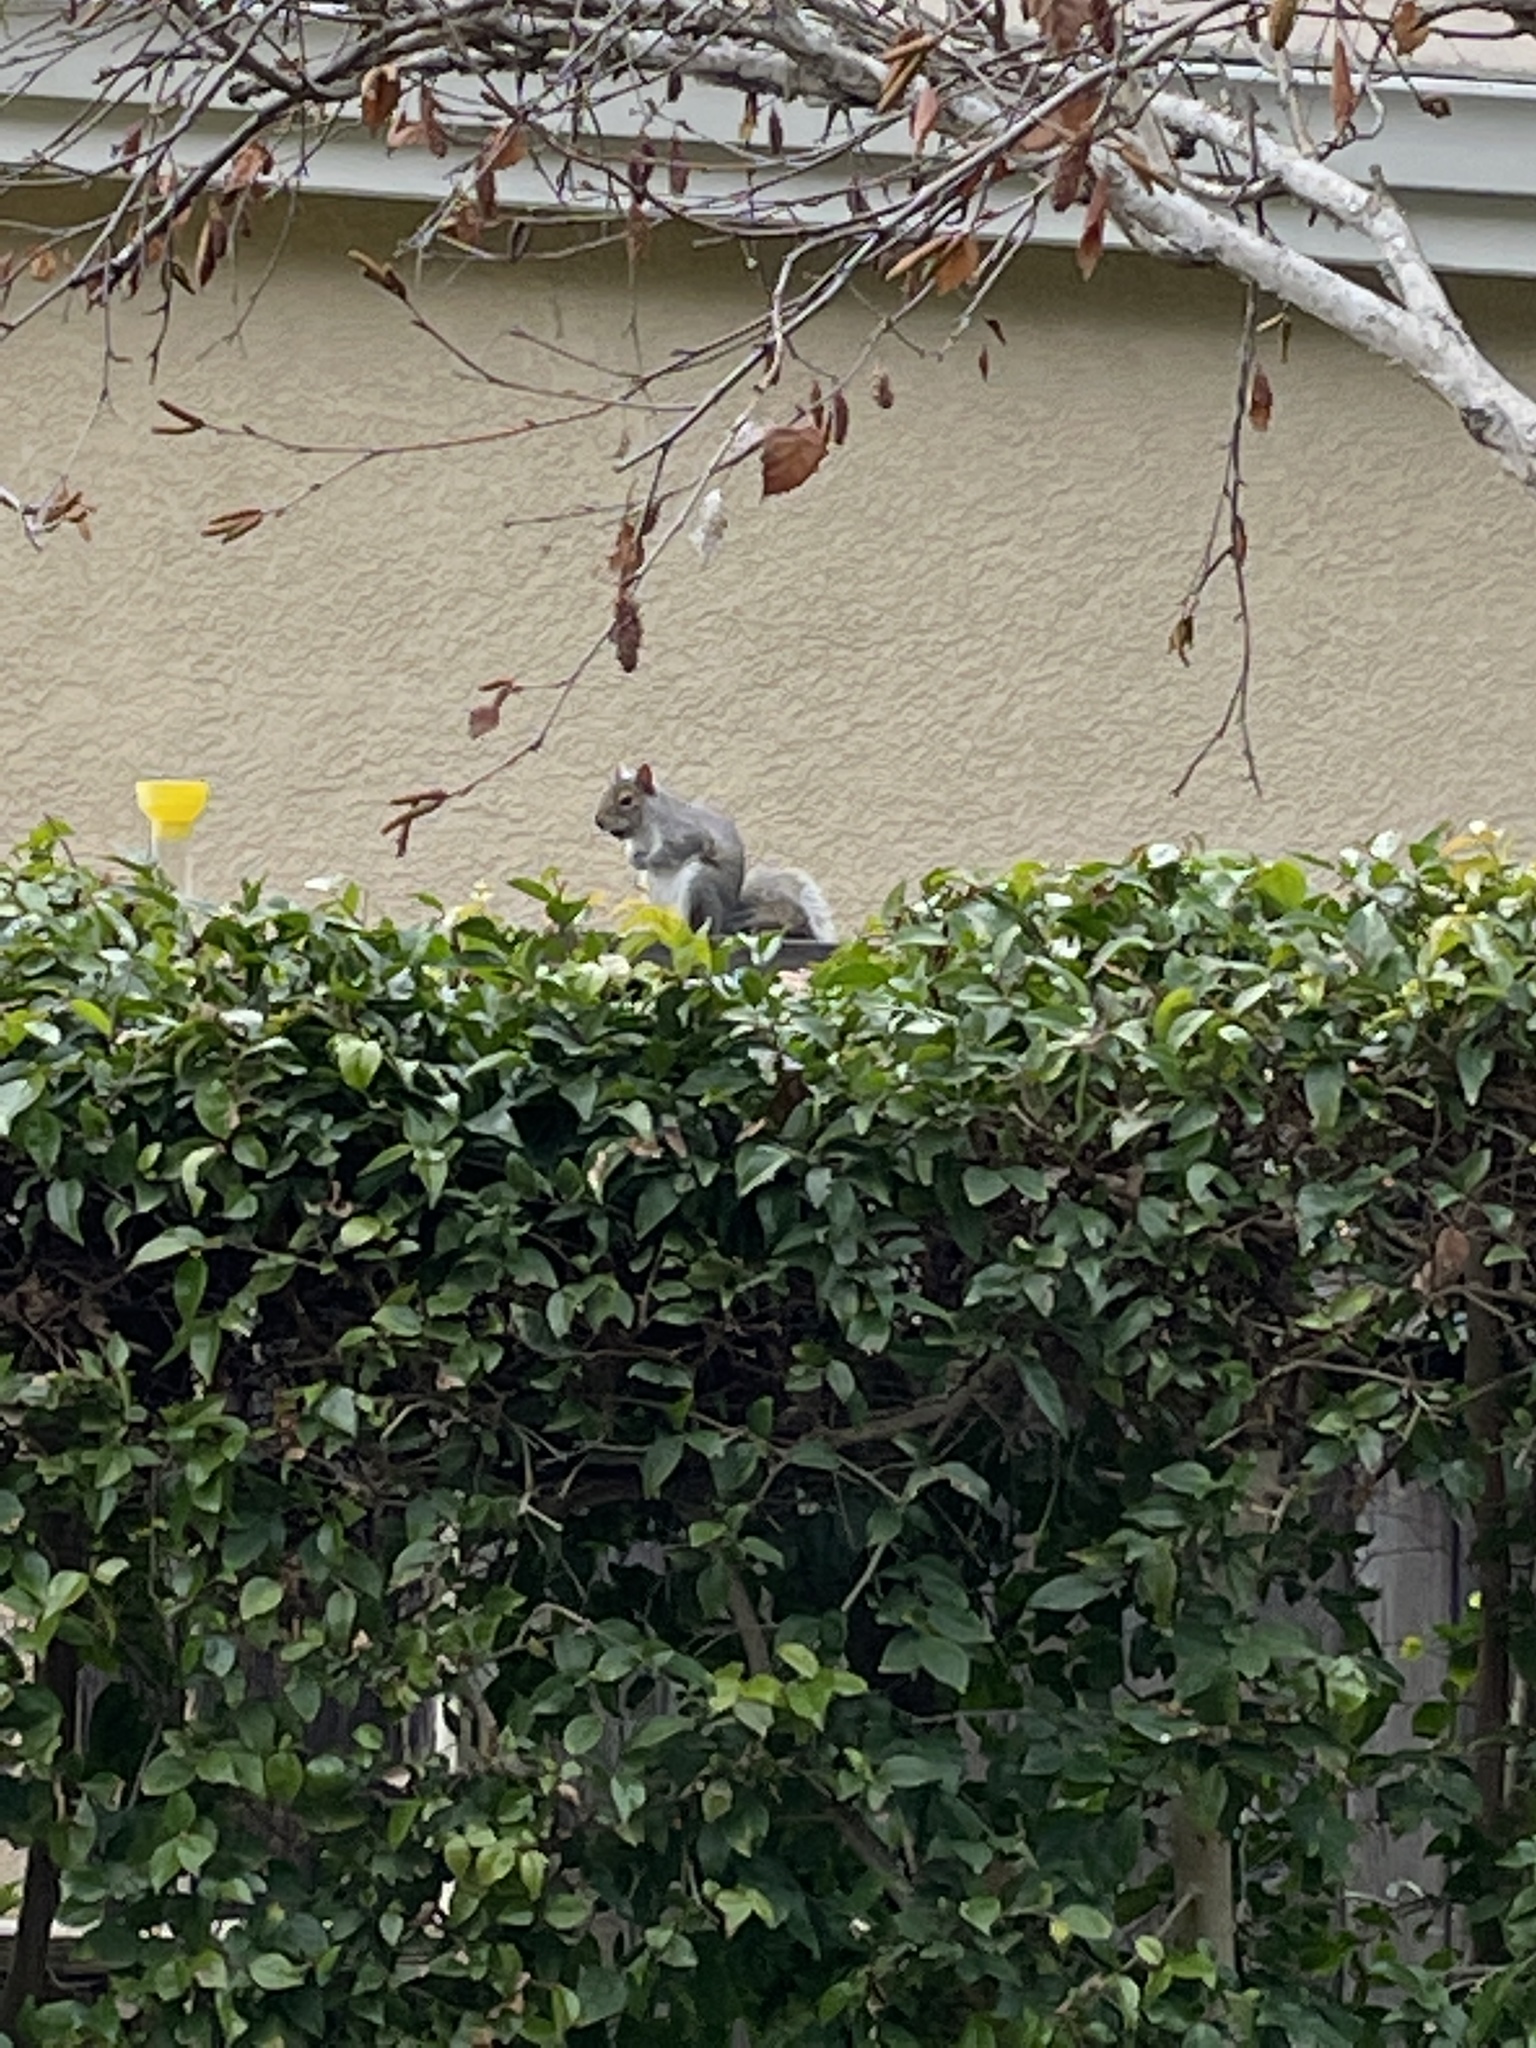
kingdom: Animalia
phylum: Chordata
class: Mammalia
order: Rodentia
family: Sciuridae
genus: Sciurus
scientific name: Sciurus carolinensis
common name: Eastern gray squirrel
